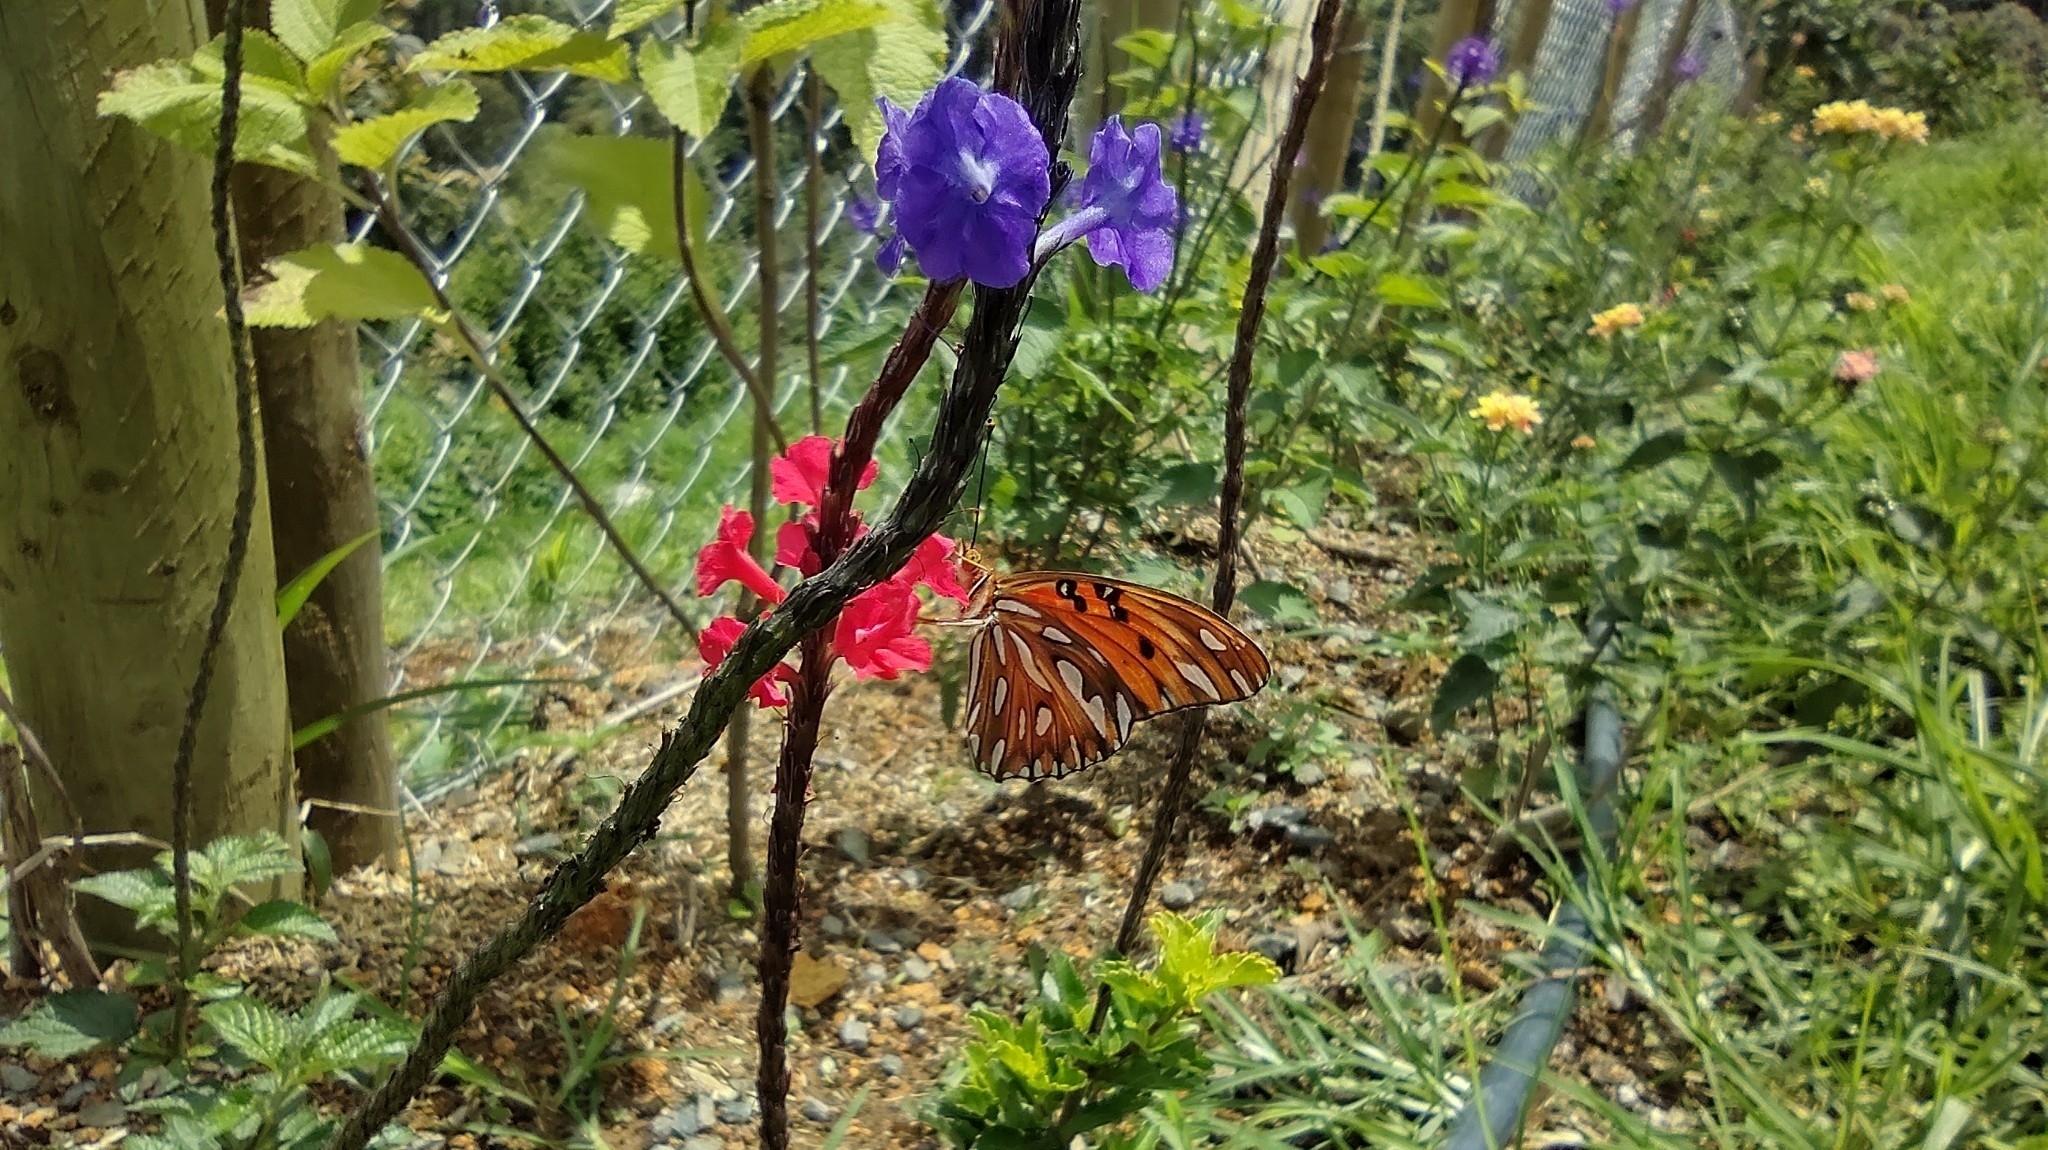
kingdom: Animalia
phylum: Arthropoda
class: Insecta
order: Lepidoptera
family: Nymphalidae
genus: Dione
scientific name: Dione vanillae
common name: Gulf fritillary
